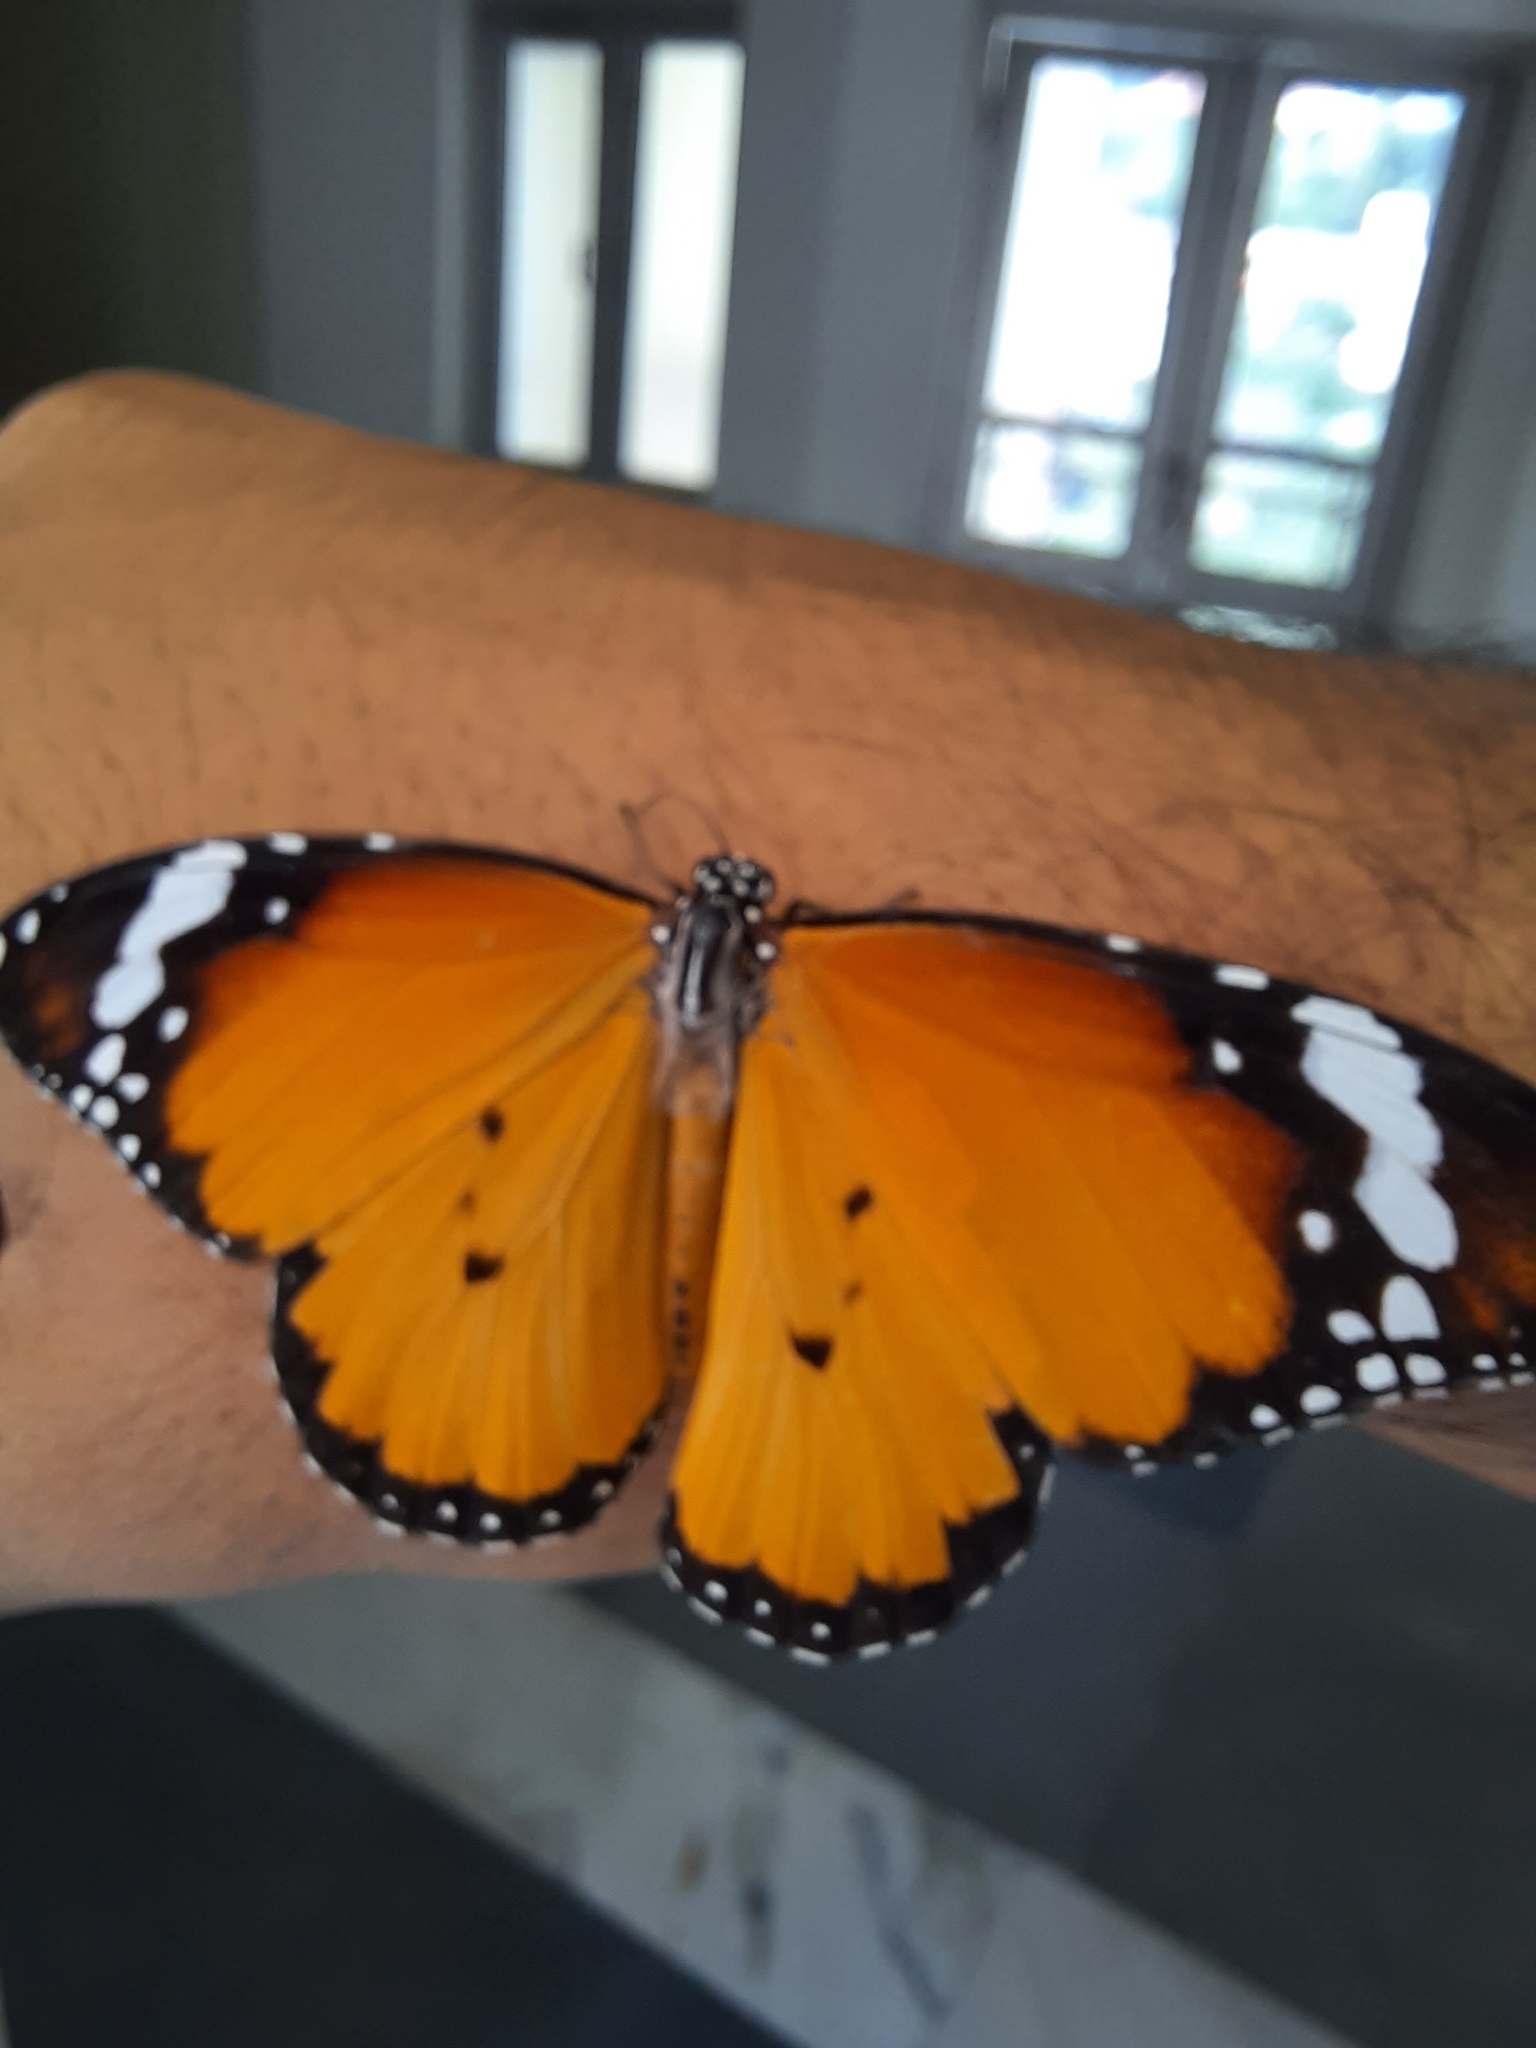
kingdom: Animalia
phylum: Arthropoda
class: Insecta
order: Lepidoptera
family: Nymphalidae
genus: Danaus
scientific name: Danaus chrysippus
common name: Plain tiger
